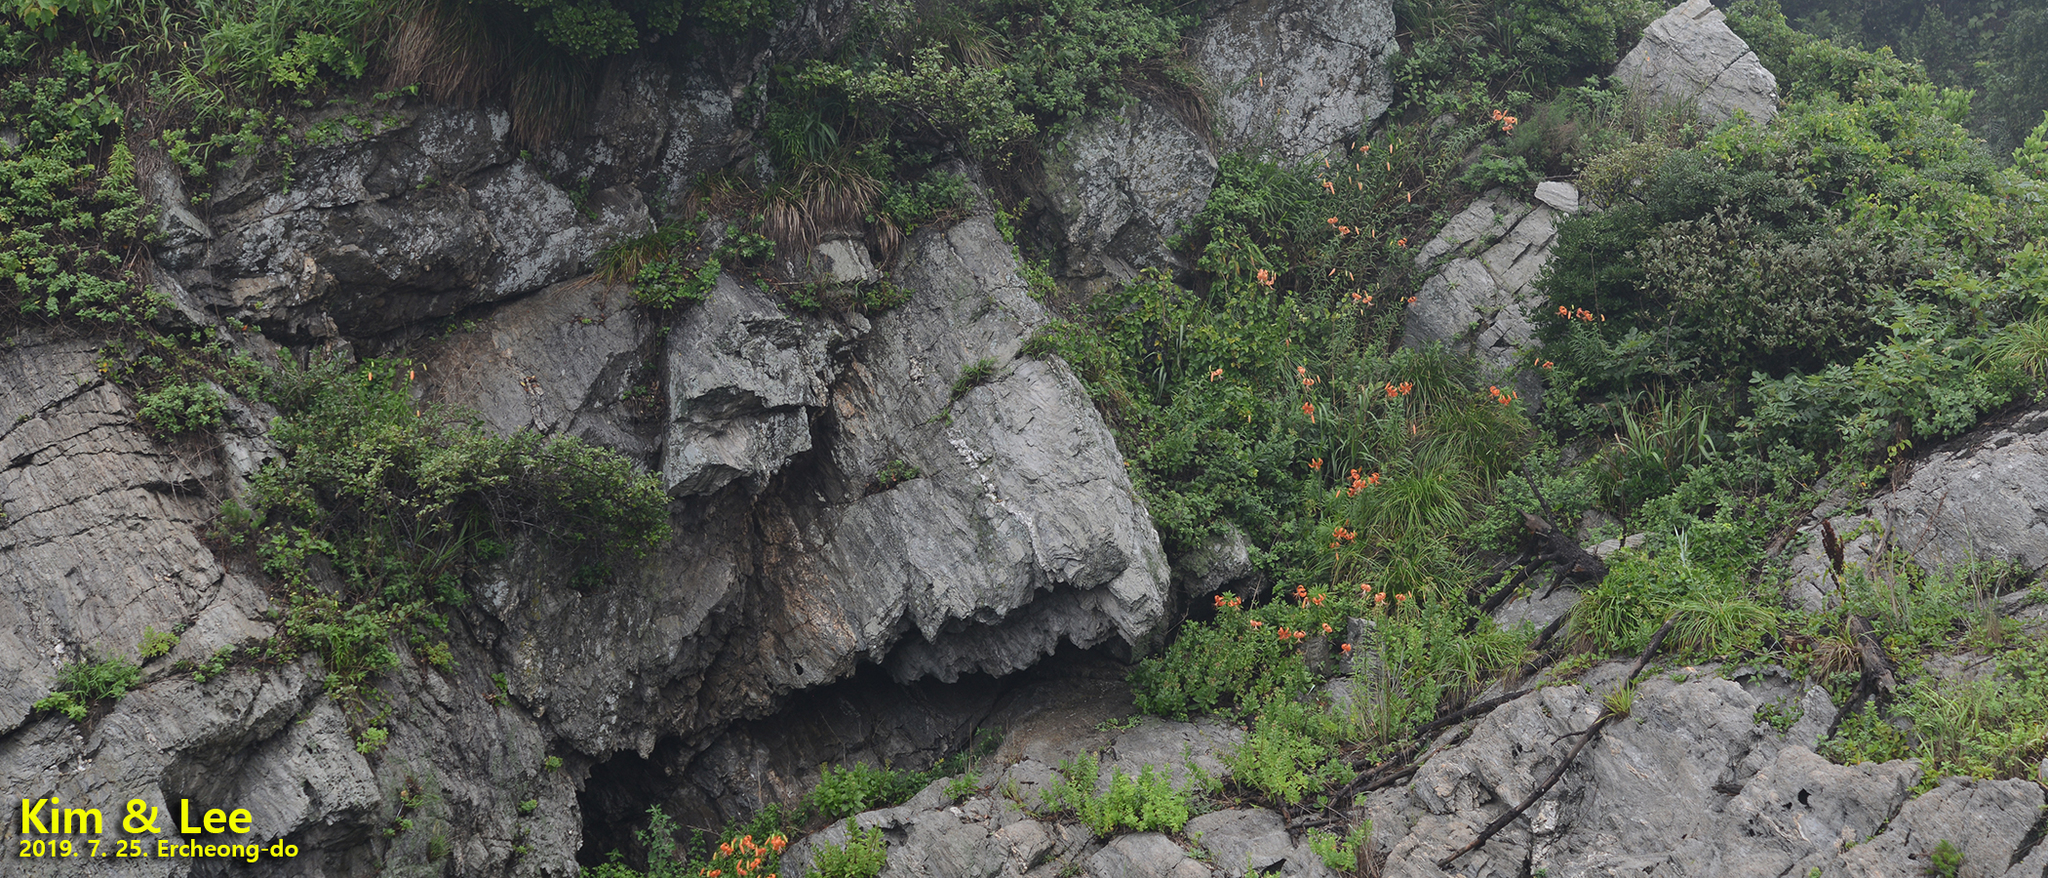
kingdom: Plantae
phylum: Tracheophyta
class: Liliopsida
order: Liliales
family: Liliaceae
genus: Lilium
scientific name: Lilium lancifolium
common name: Tiger lily
